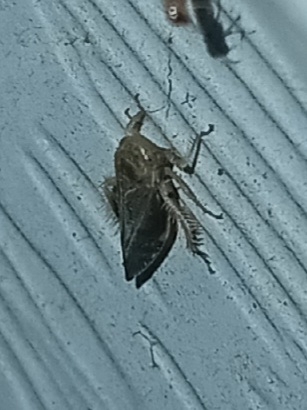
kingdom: Animalia
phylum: Arthropoda
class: Insecta
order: Hemiptera
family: Cicadellidae
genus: Acinopterus
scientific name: Acinopterus acuminatus
